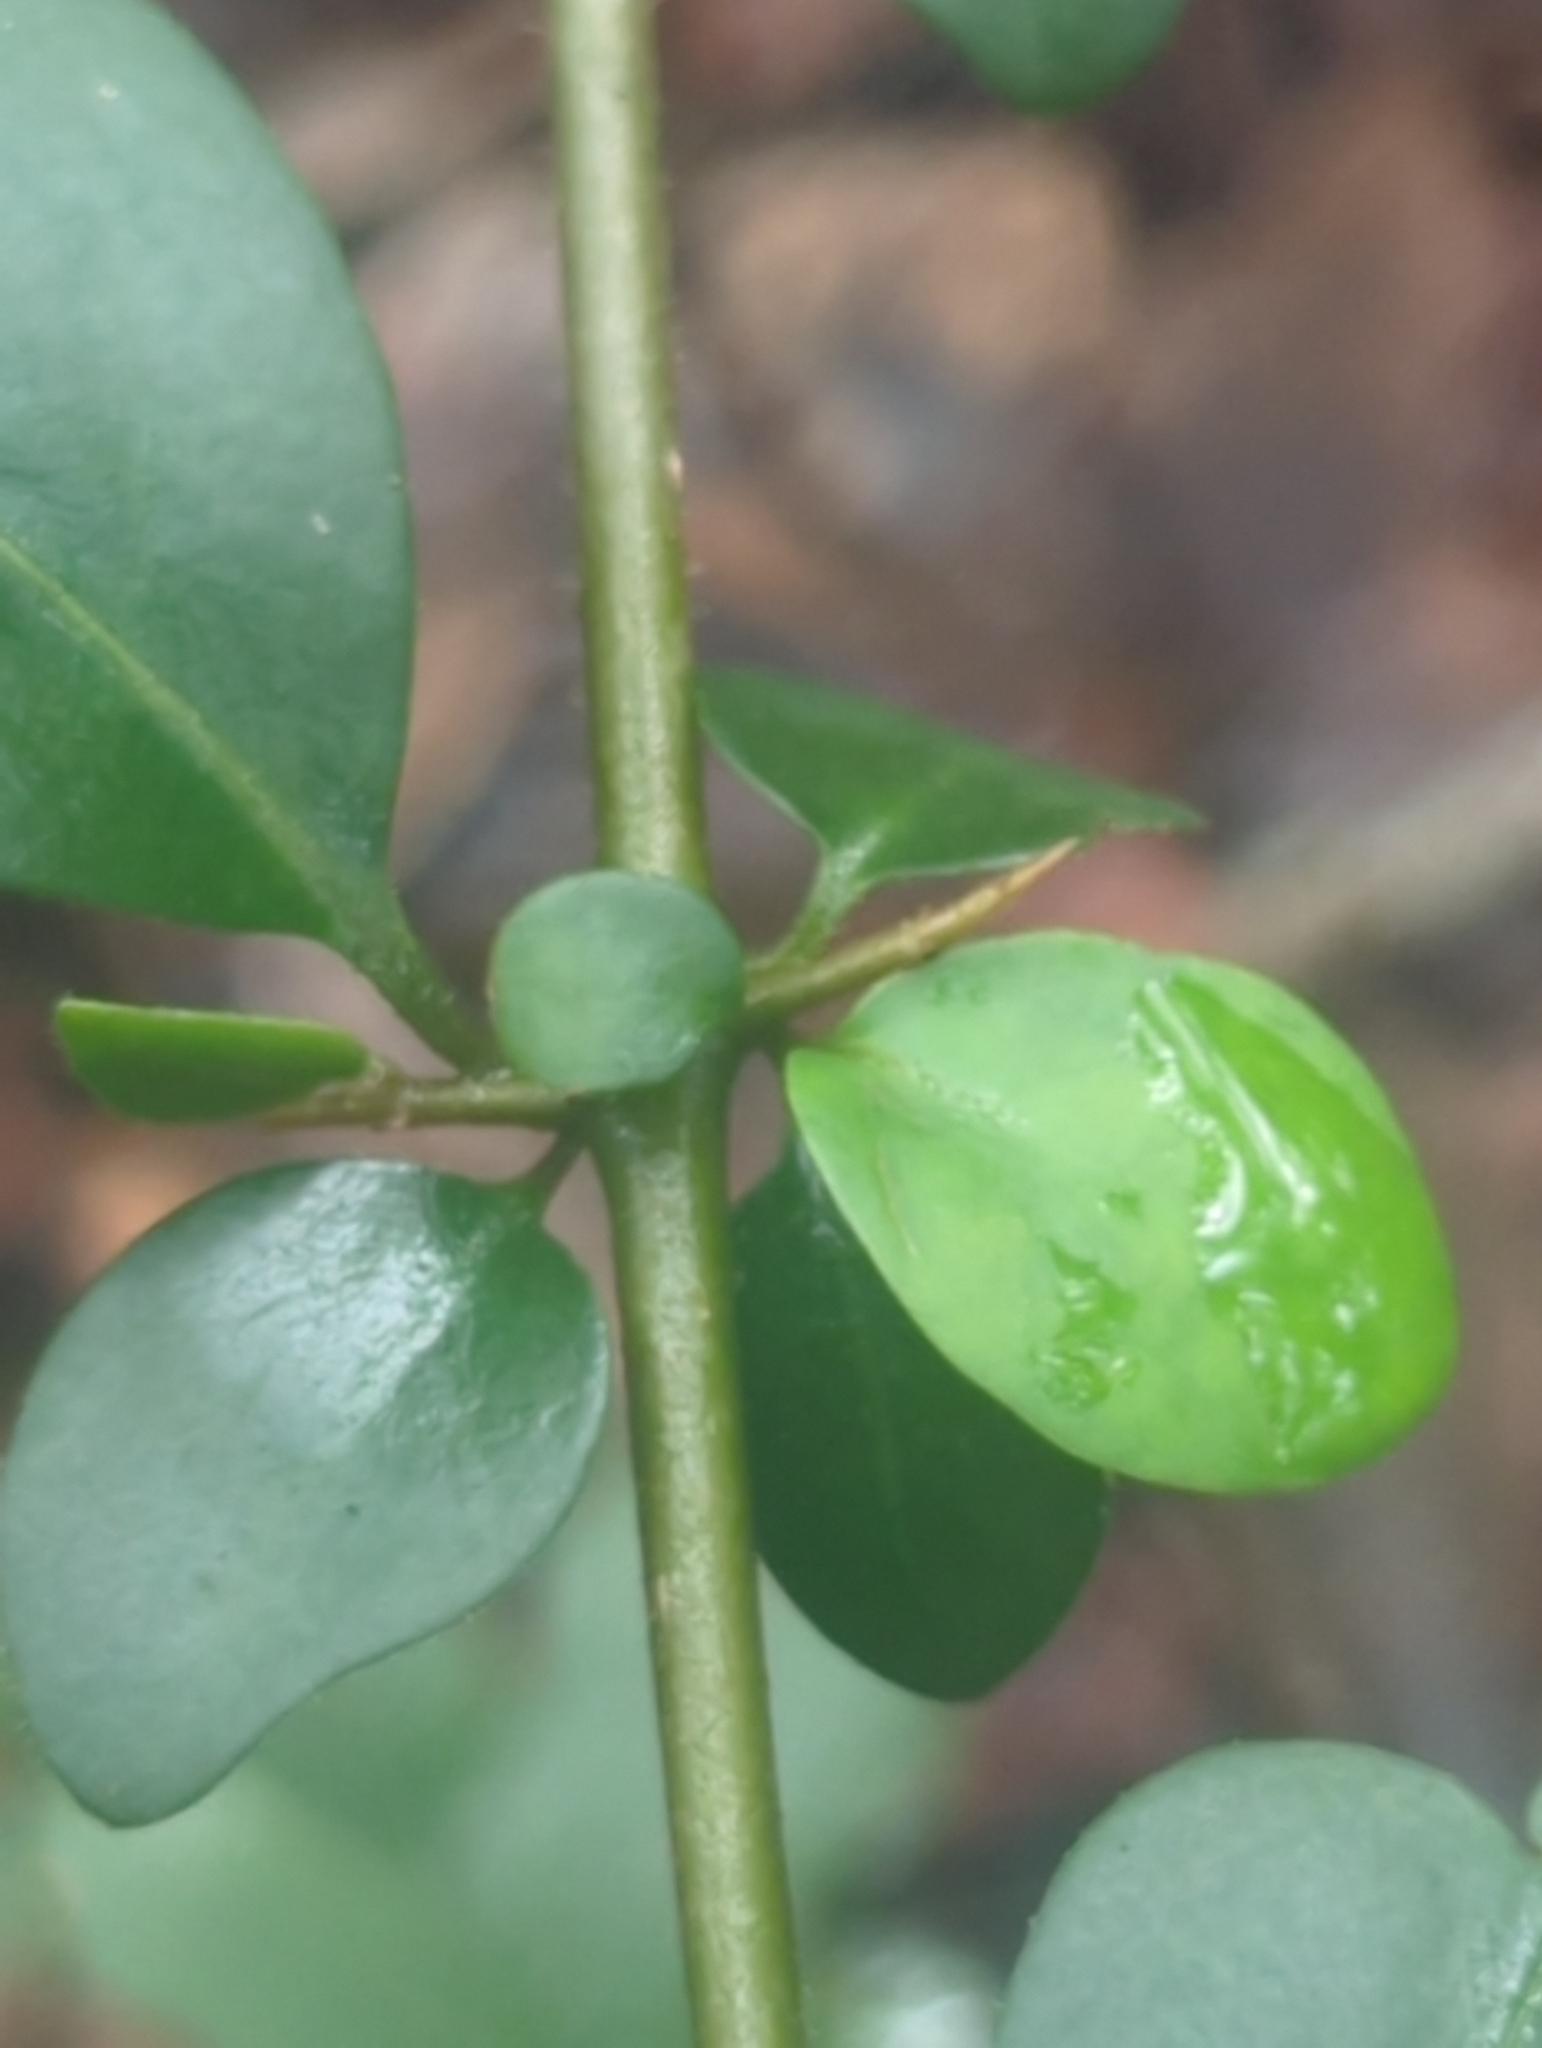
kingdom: Plantae
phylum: Tracheophyta
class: Magnoliopsida
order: Caryophyllales
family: Nyctaginaceae
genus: Pisonia
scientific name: Pisonia aculeata
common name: Cockspur vine
